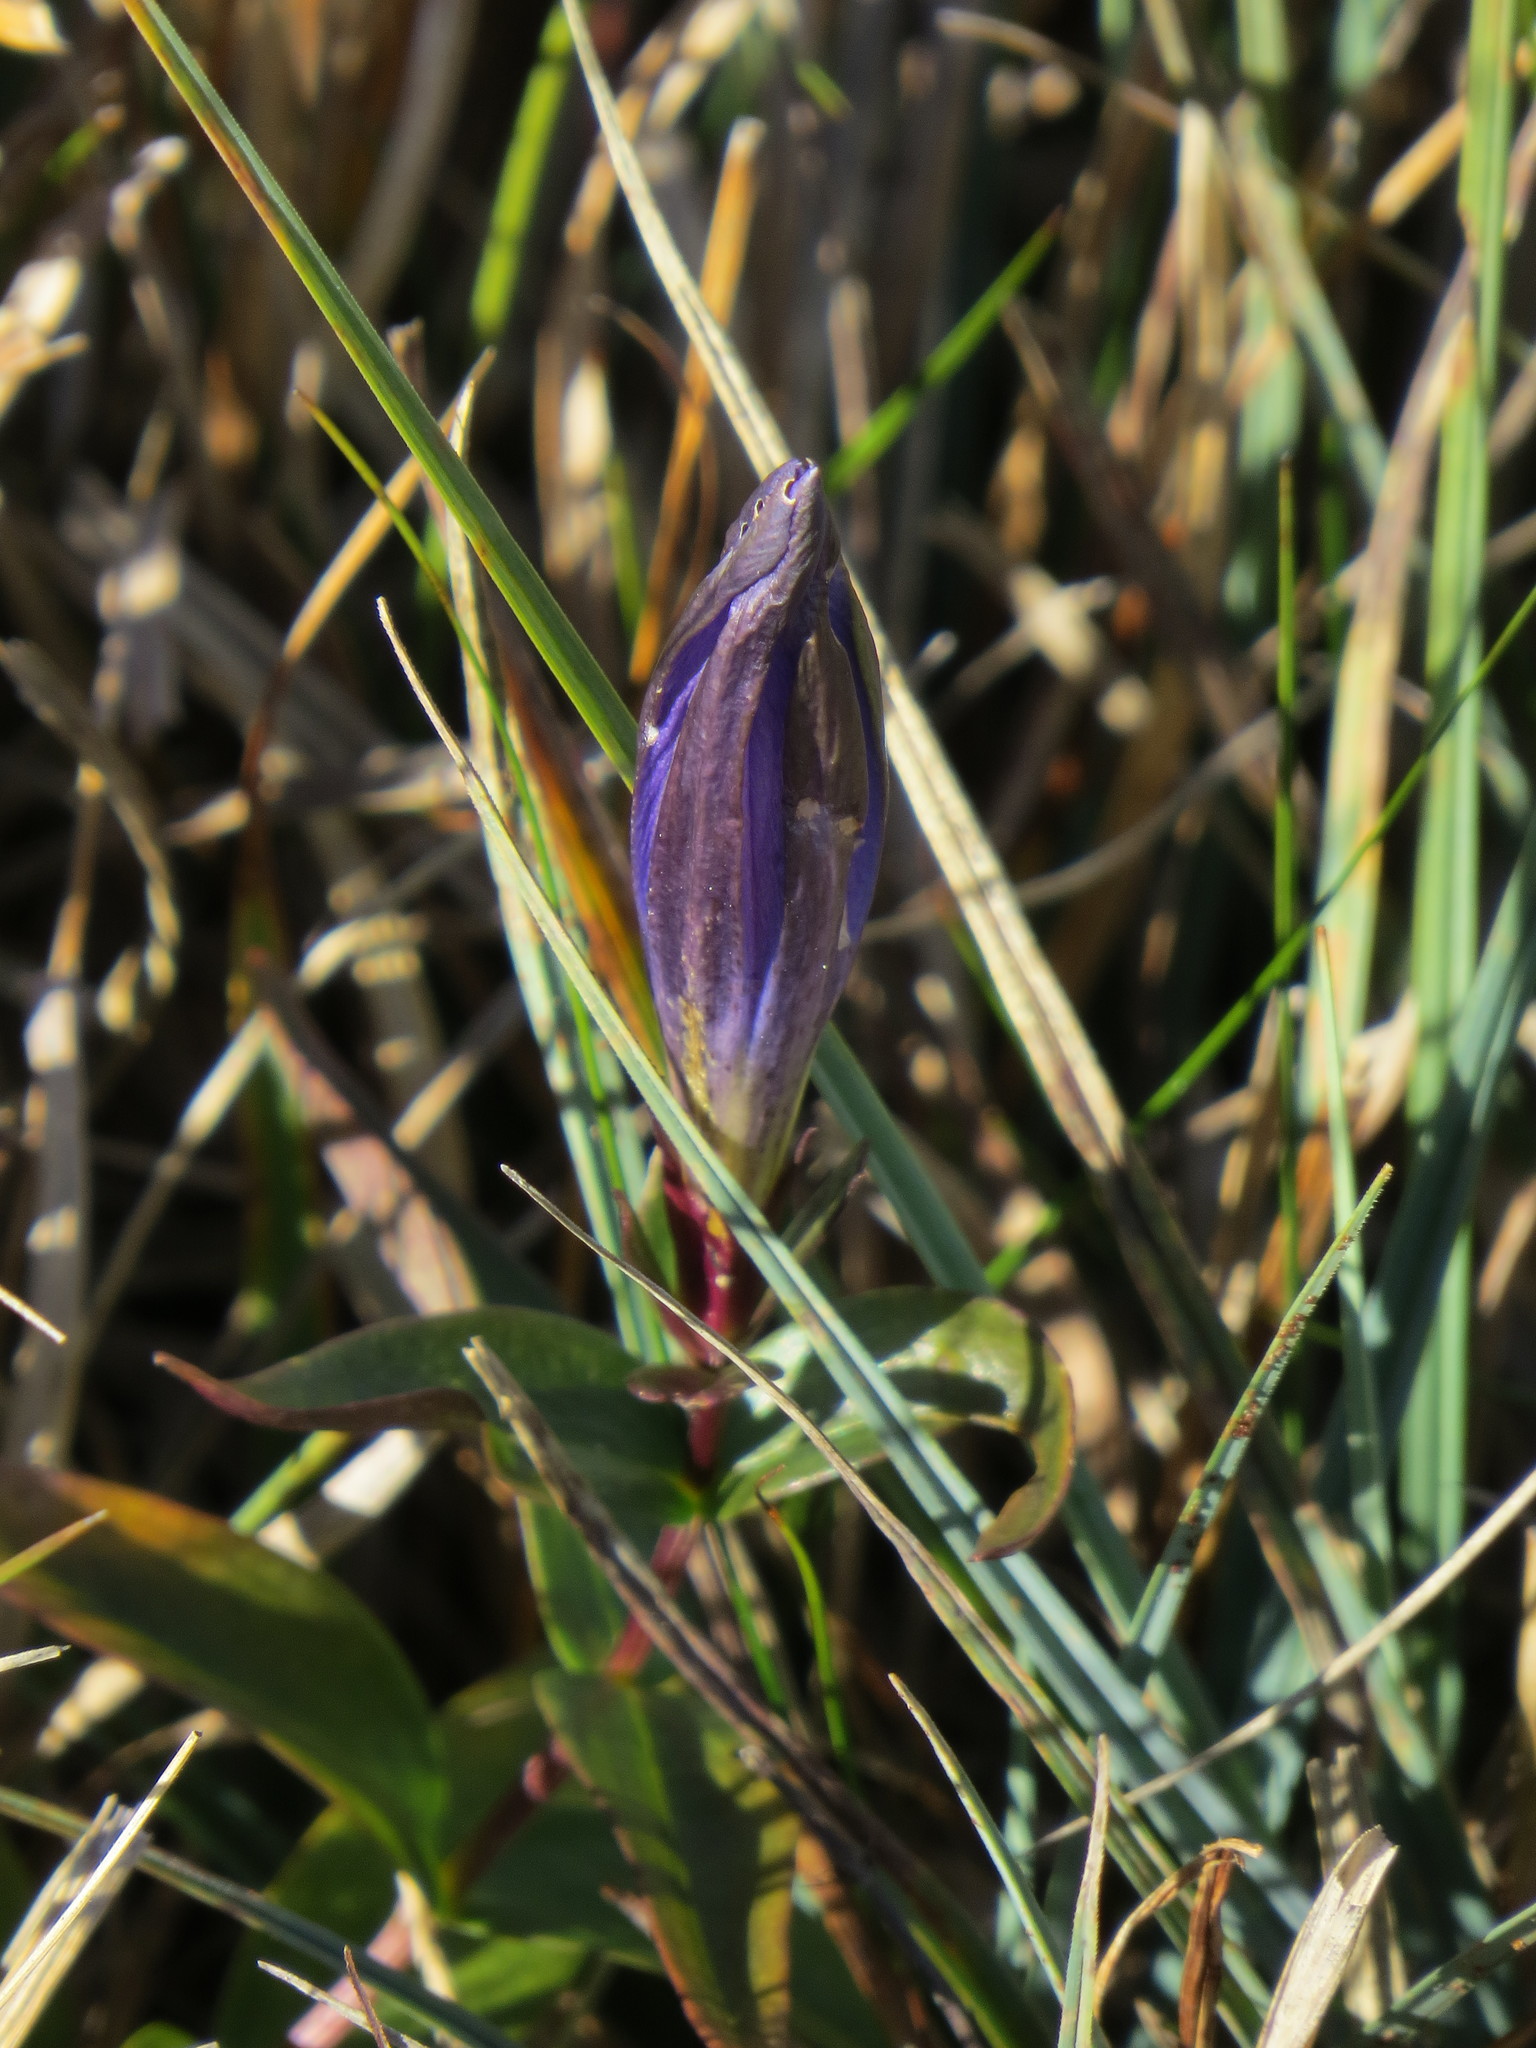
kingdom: Plantae
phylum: Tracheophyta
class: Magnoliopsida
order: Gentianales
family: Gentianaceae
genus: Gentiana
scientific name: Gentiana pneumonanthe
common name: Marsh gentian
